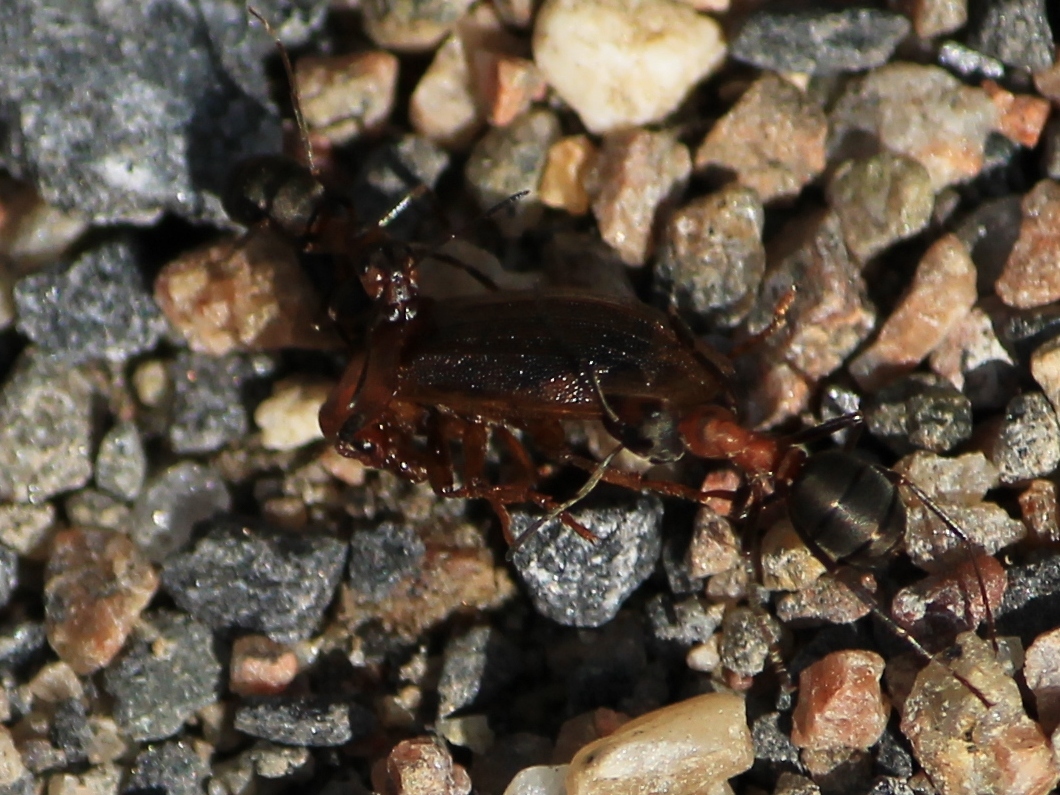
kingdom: Animalia
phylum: Arthropoda
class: Insecta
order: Coleoptera
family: Staphylinidae
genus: Silpha
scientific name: Silpha atrata
